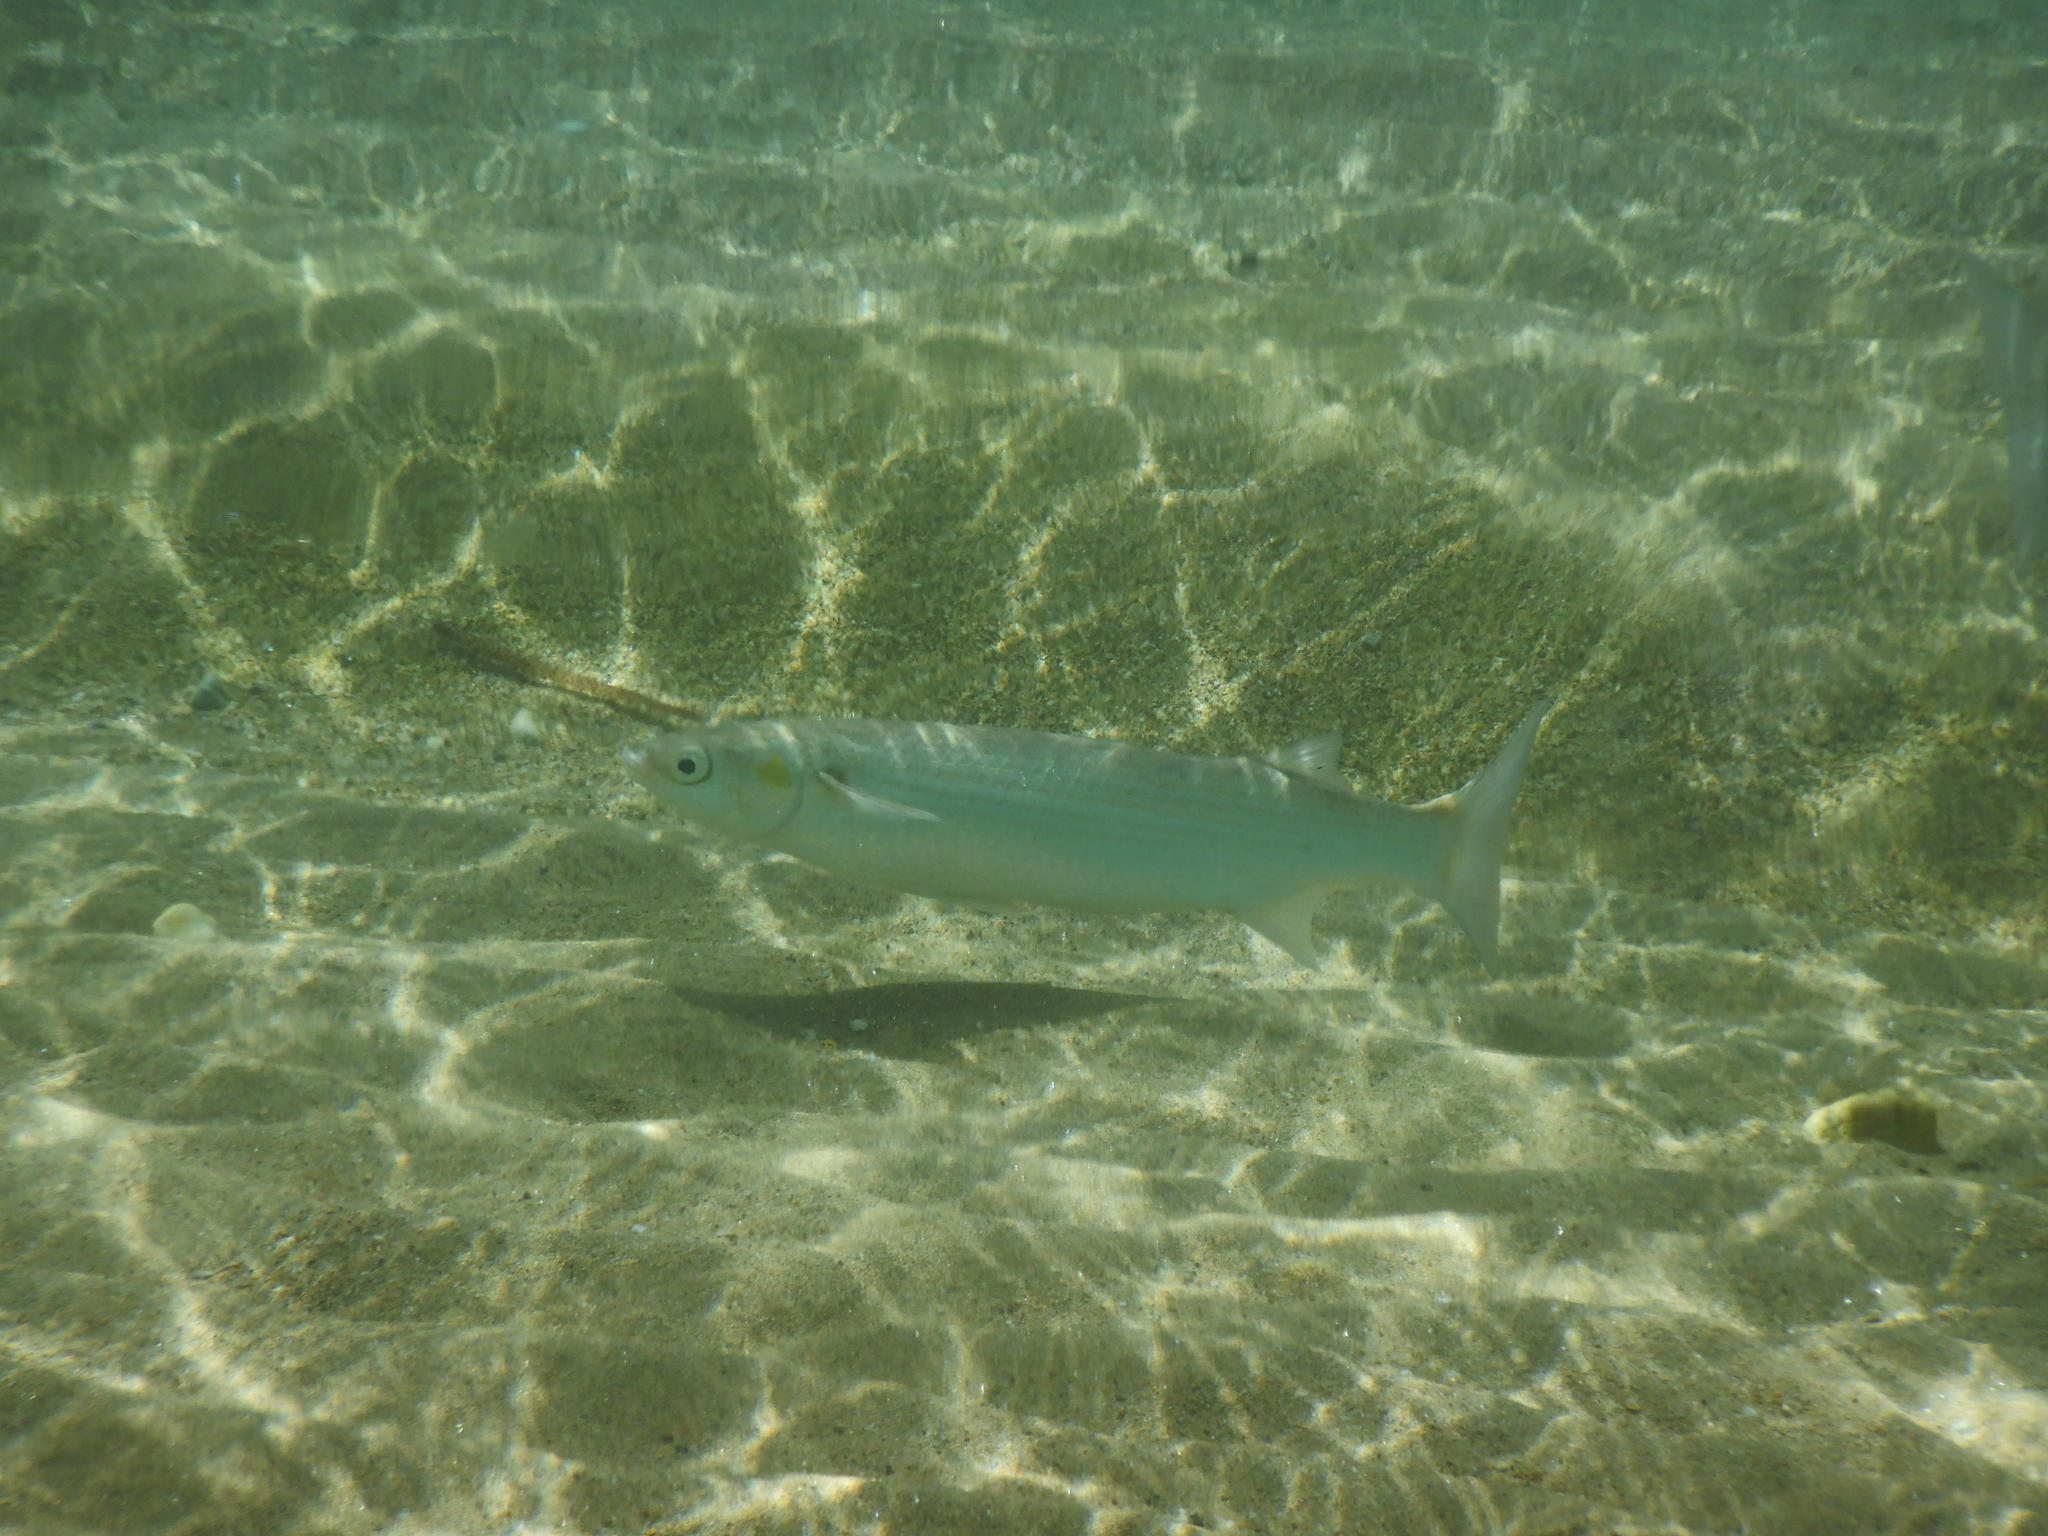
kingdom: Animalia
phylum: Chordata
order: Mugiliformes
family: Mugilidae
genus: Chelon
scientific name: Chelon
